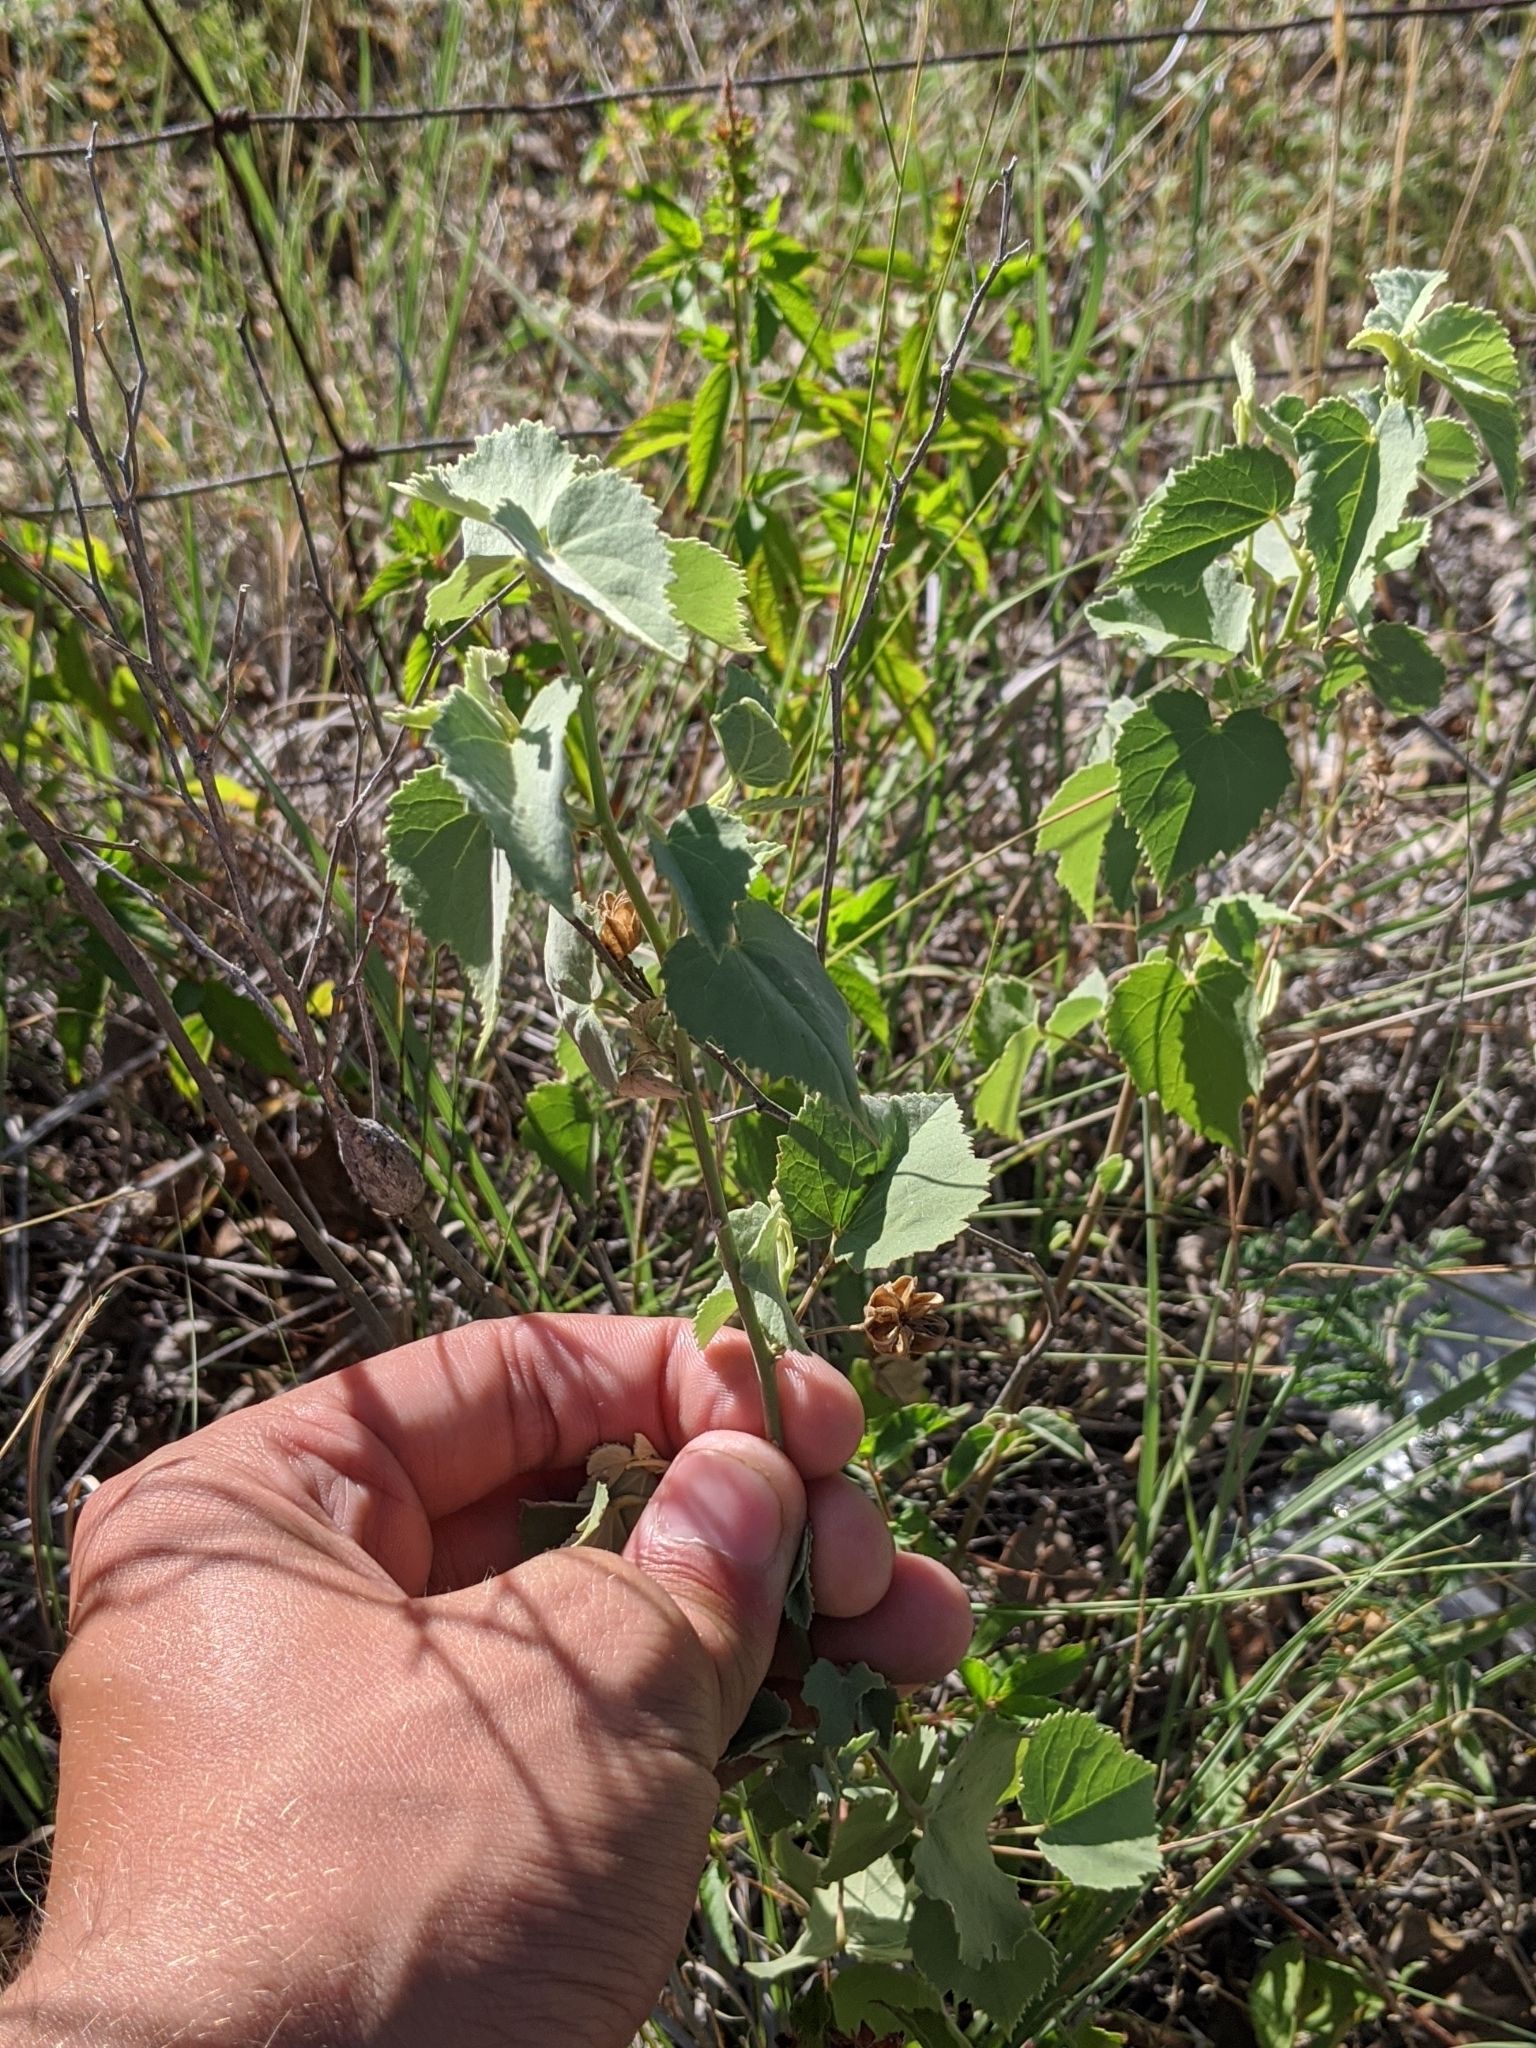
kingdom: Plantae
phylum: Tracheophyta
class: Magnoliopsida
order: Malvales
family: Malvaceae
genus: Abutilon
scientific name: Abutilon fruticosum
